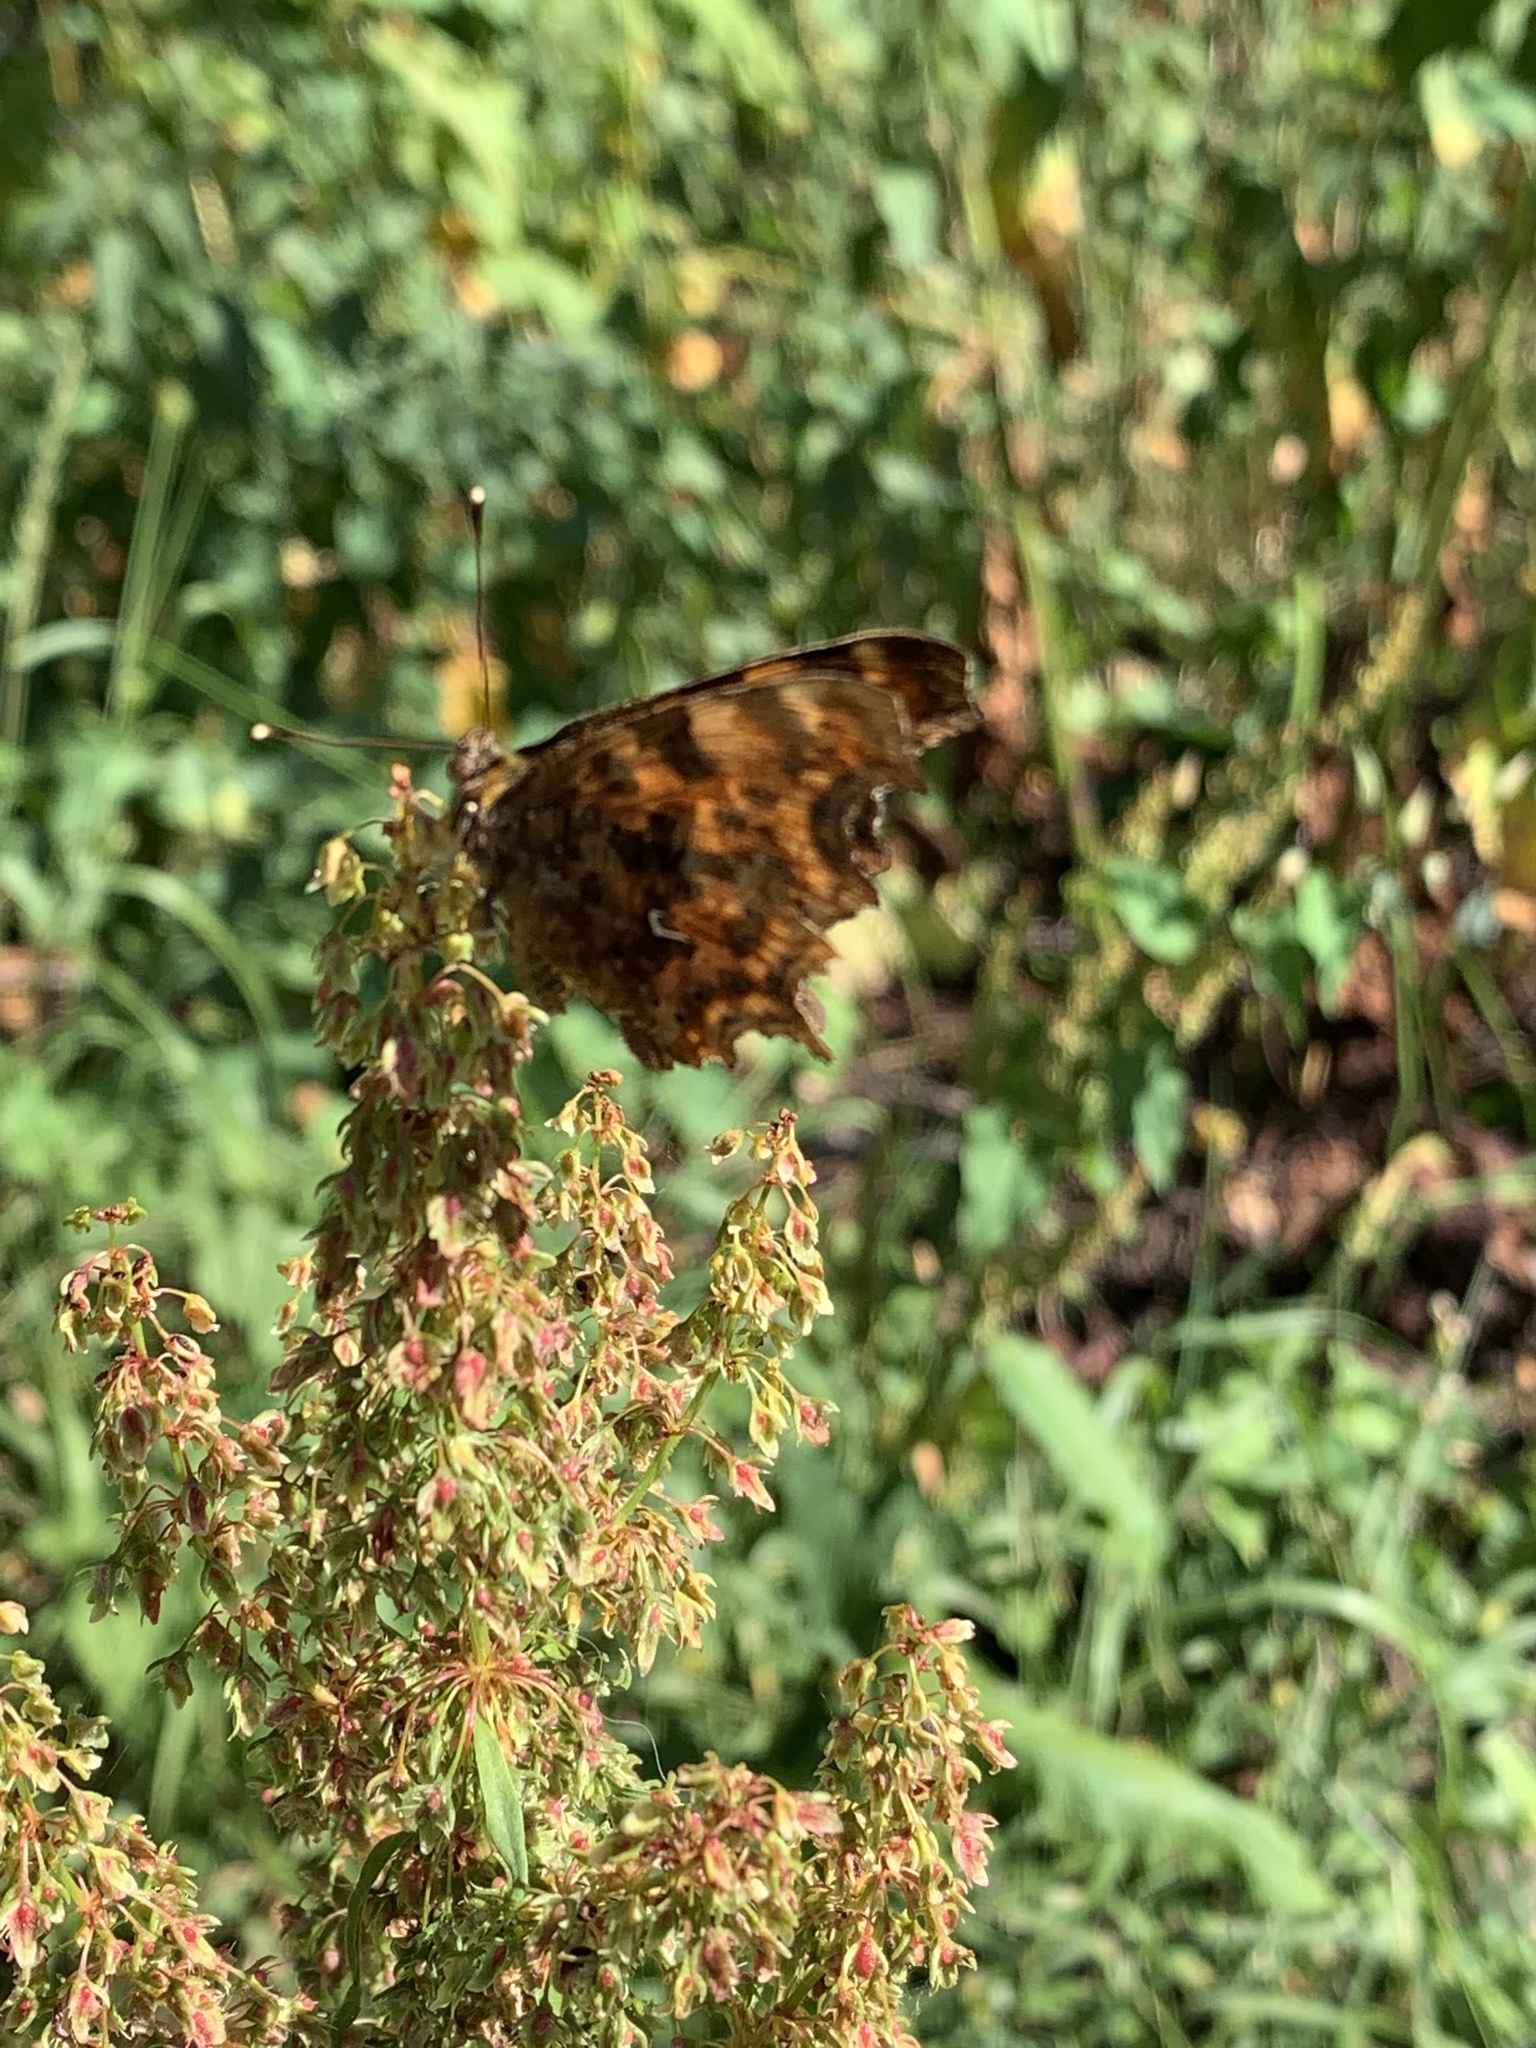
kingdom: Animalia
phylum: Arthropoda
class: Insecta
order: Lepidoptera
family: Nymphalidae
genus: Polygonia
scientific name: Polygonia c-album
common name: Comma
